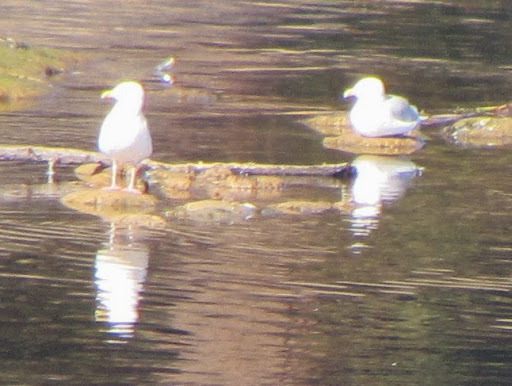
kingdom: Animalia
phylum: Chordata
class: Aves
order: Charadriiformes
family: Laridae
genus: Larus
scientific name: Larus californicus
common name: California gull
